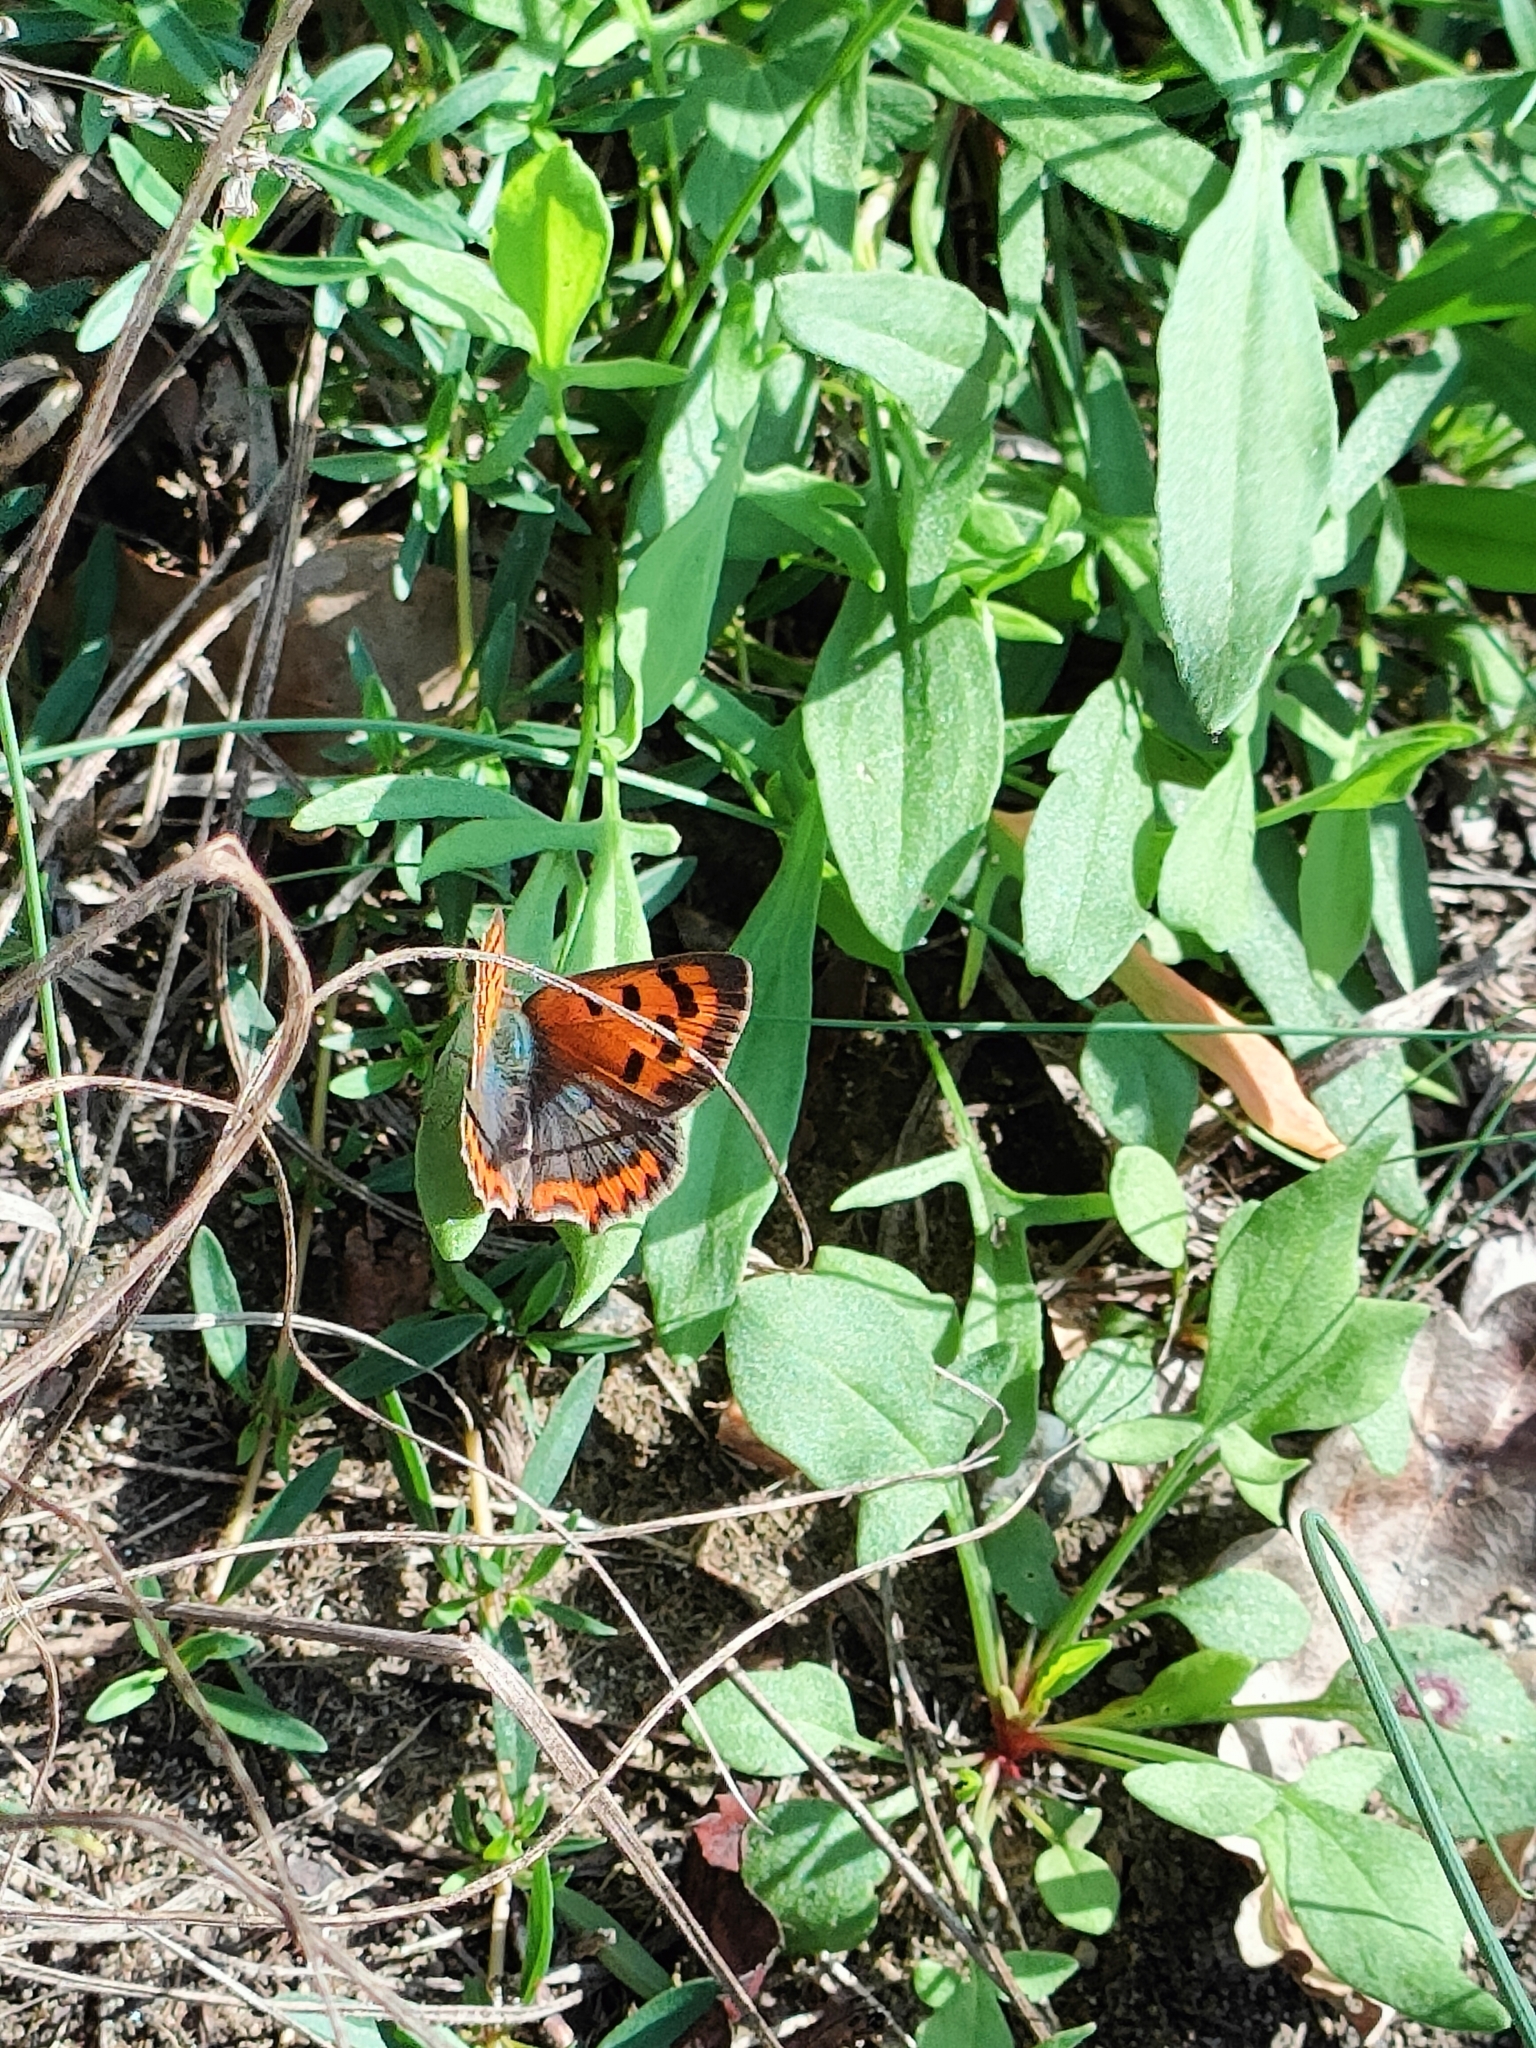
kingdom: Animalia
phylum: Arthropoda
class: Insecta
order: Lepidoptera
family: Lycaenidae
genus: Lycaena
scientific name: Lycaena phlaeas
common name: Small copper
